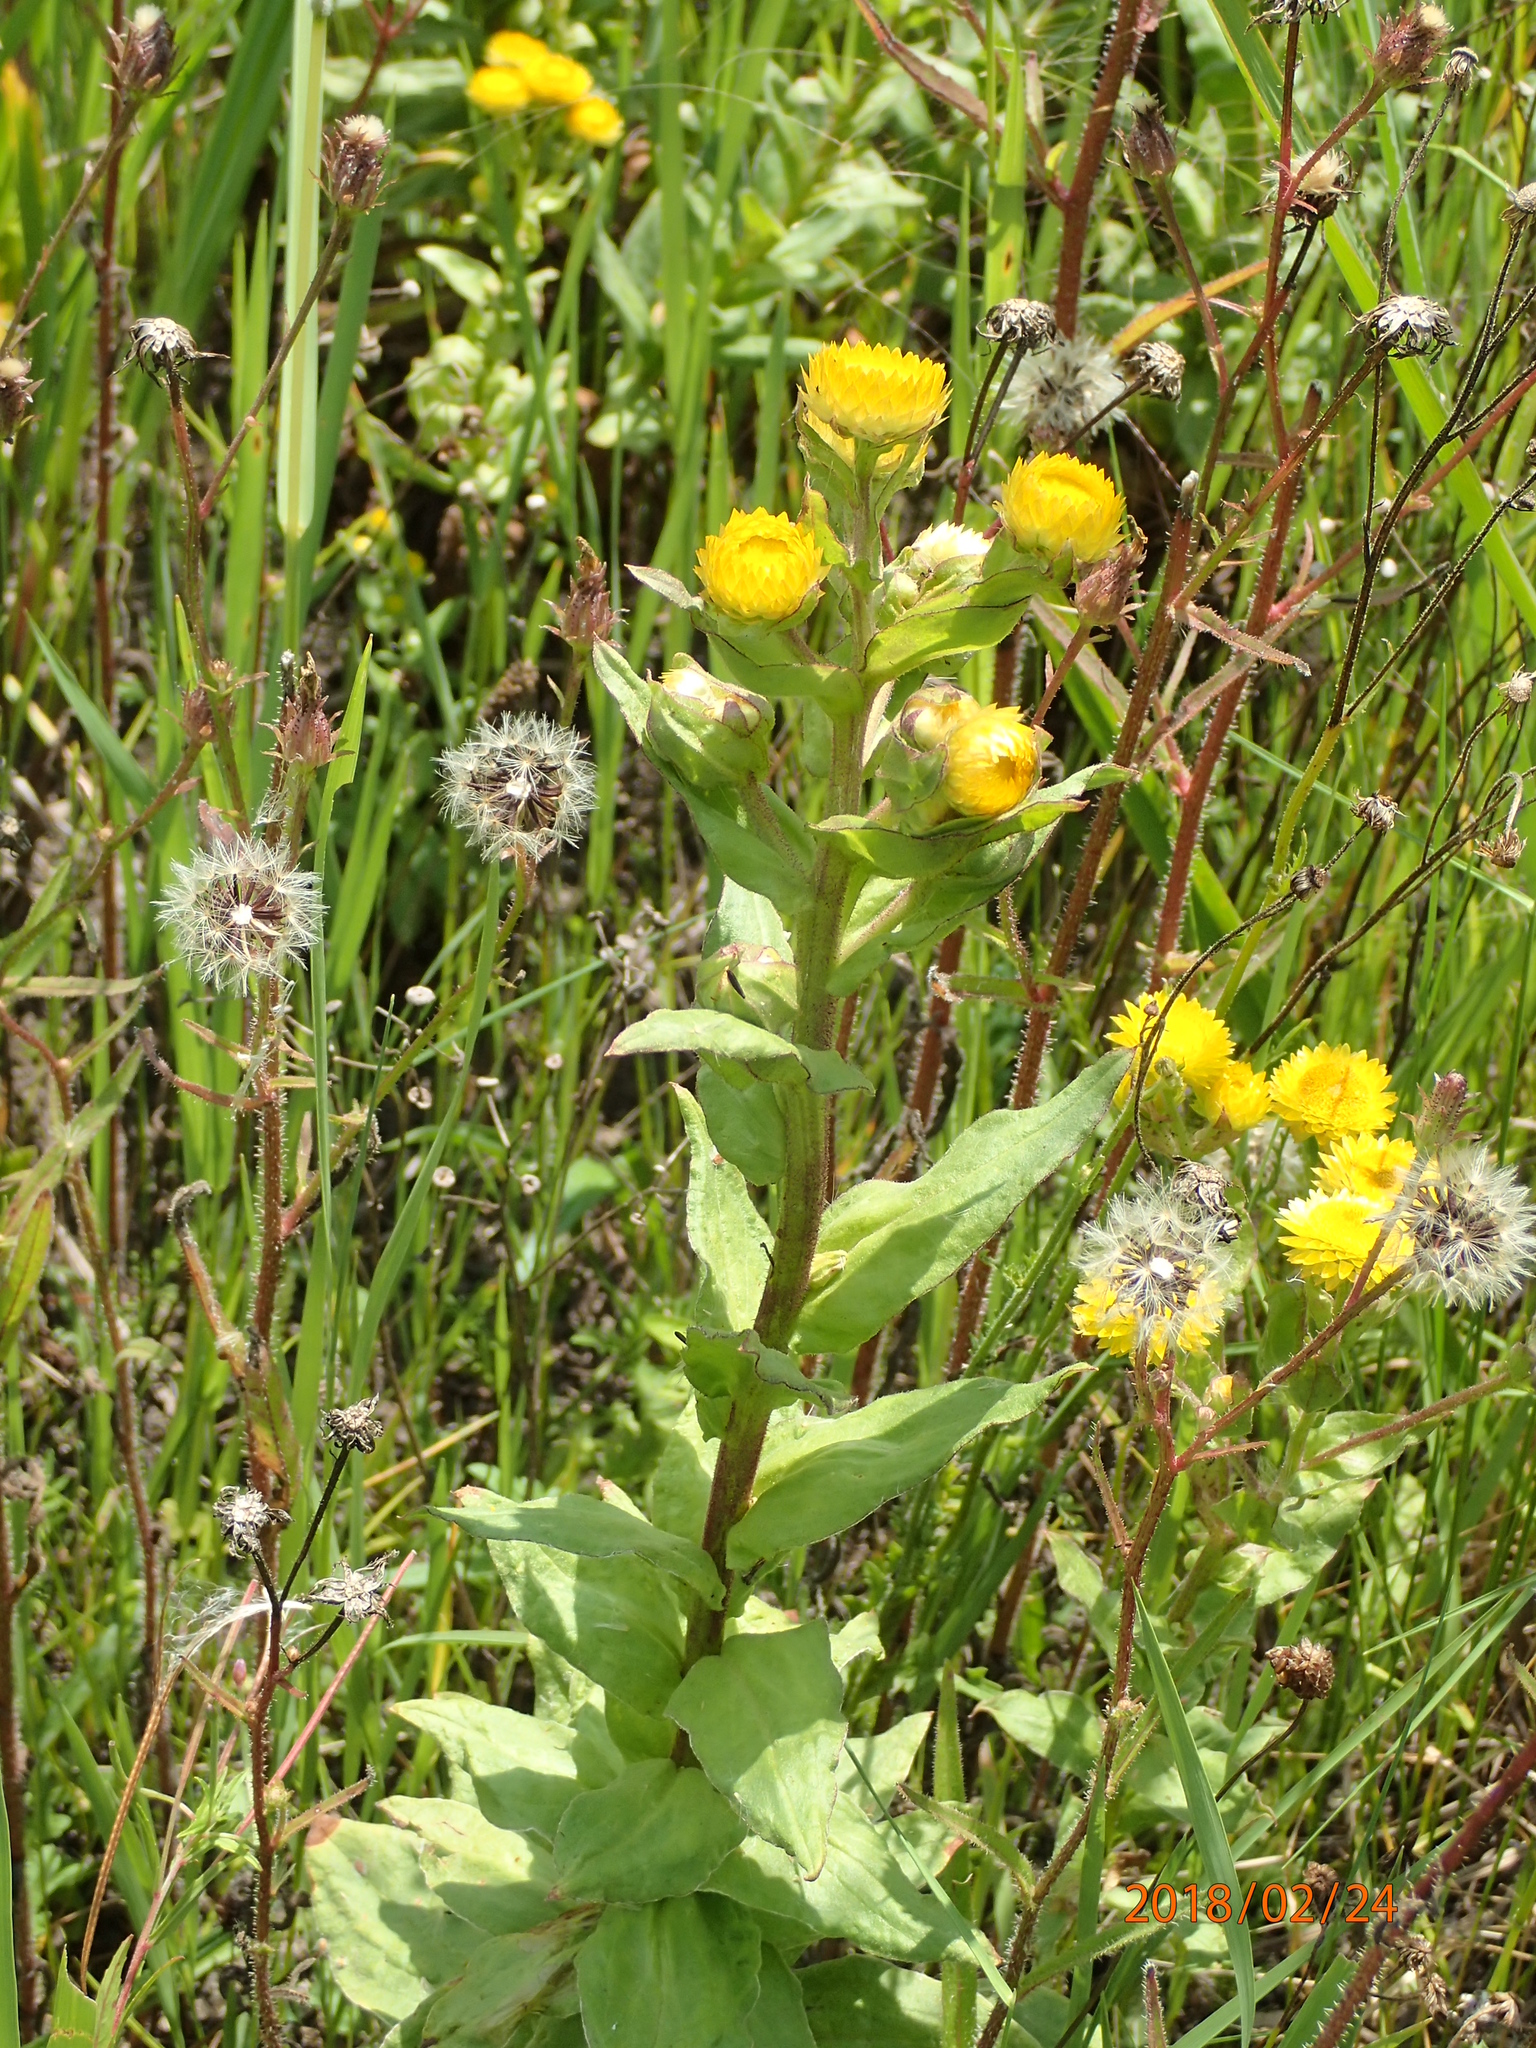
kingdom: Plantae
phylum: Tracheophyta
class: Magnoliopsida
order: Asterales
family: Asteraceae
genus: Helichrysum
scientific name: Helichrysum cooperi
